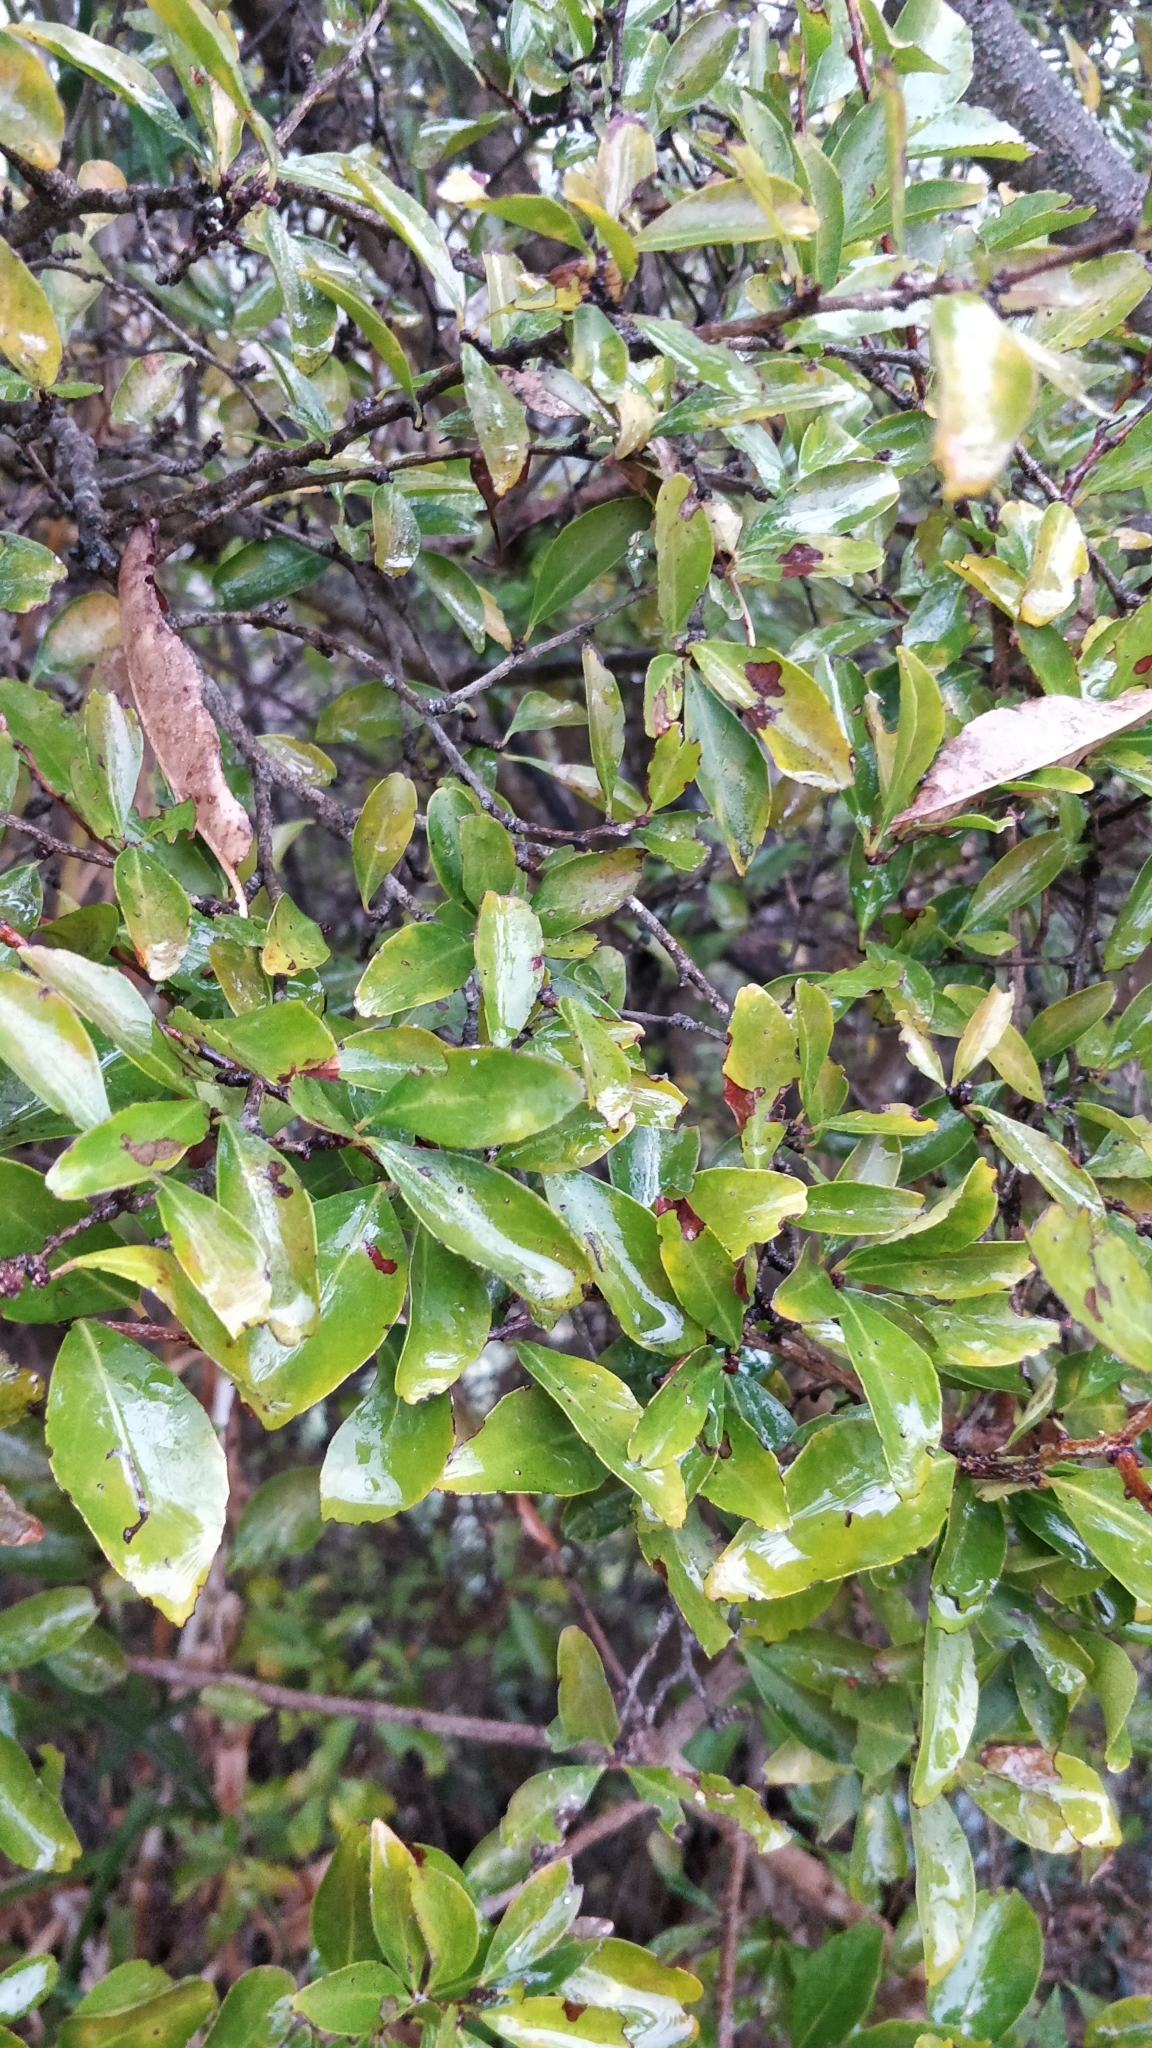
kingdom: Plantae
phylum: Tracheophyta
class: Magnoliopsida
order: Celastrales
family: Celastraceae
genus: Gymnosporia
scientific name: Gymnosporia dryandri
